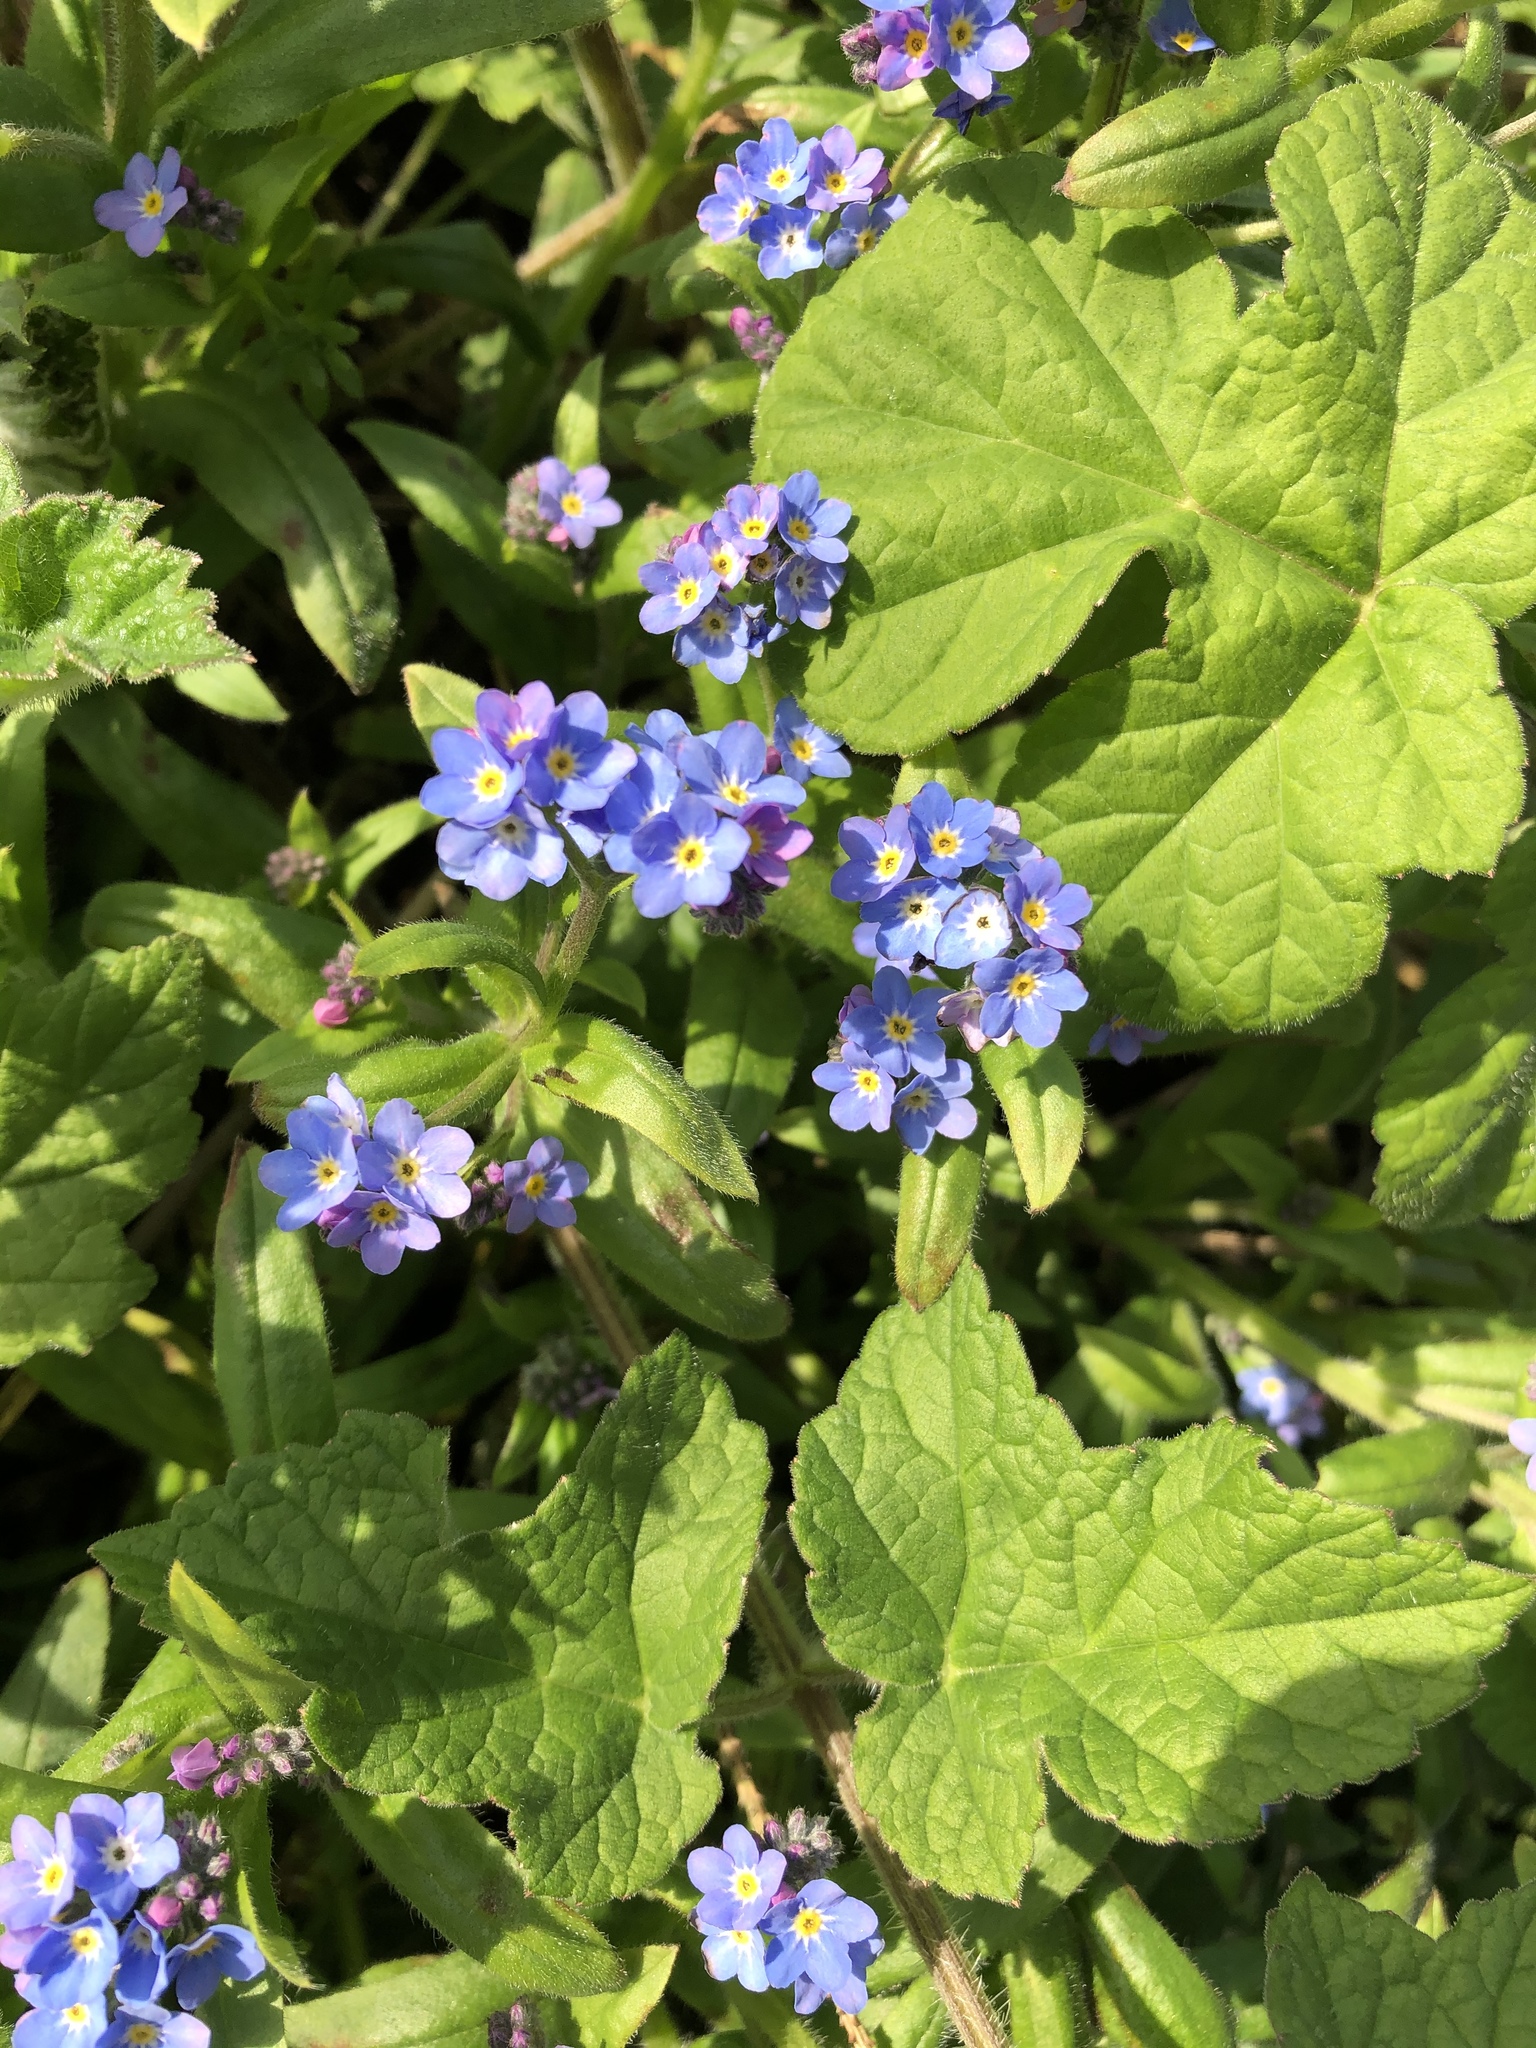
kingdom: Plantae
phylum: Tracheophyta
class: Magnoliopsida
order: Boraginales
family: Boraginaceae
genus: Myosotis
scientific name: Myosotis sylvatica
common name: Wood forget-me-not
